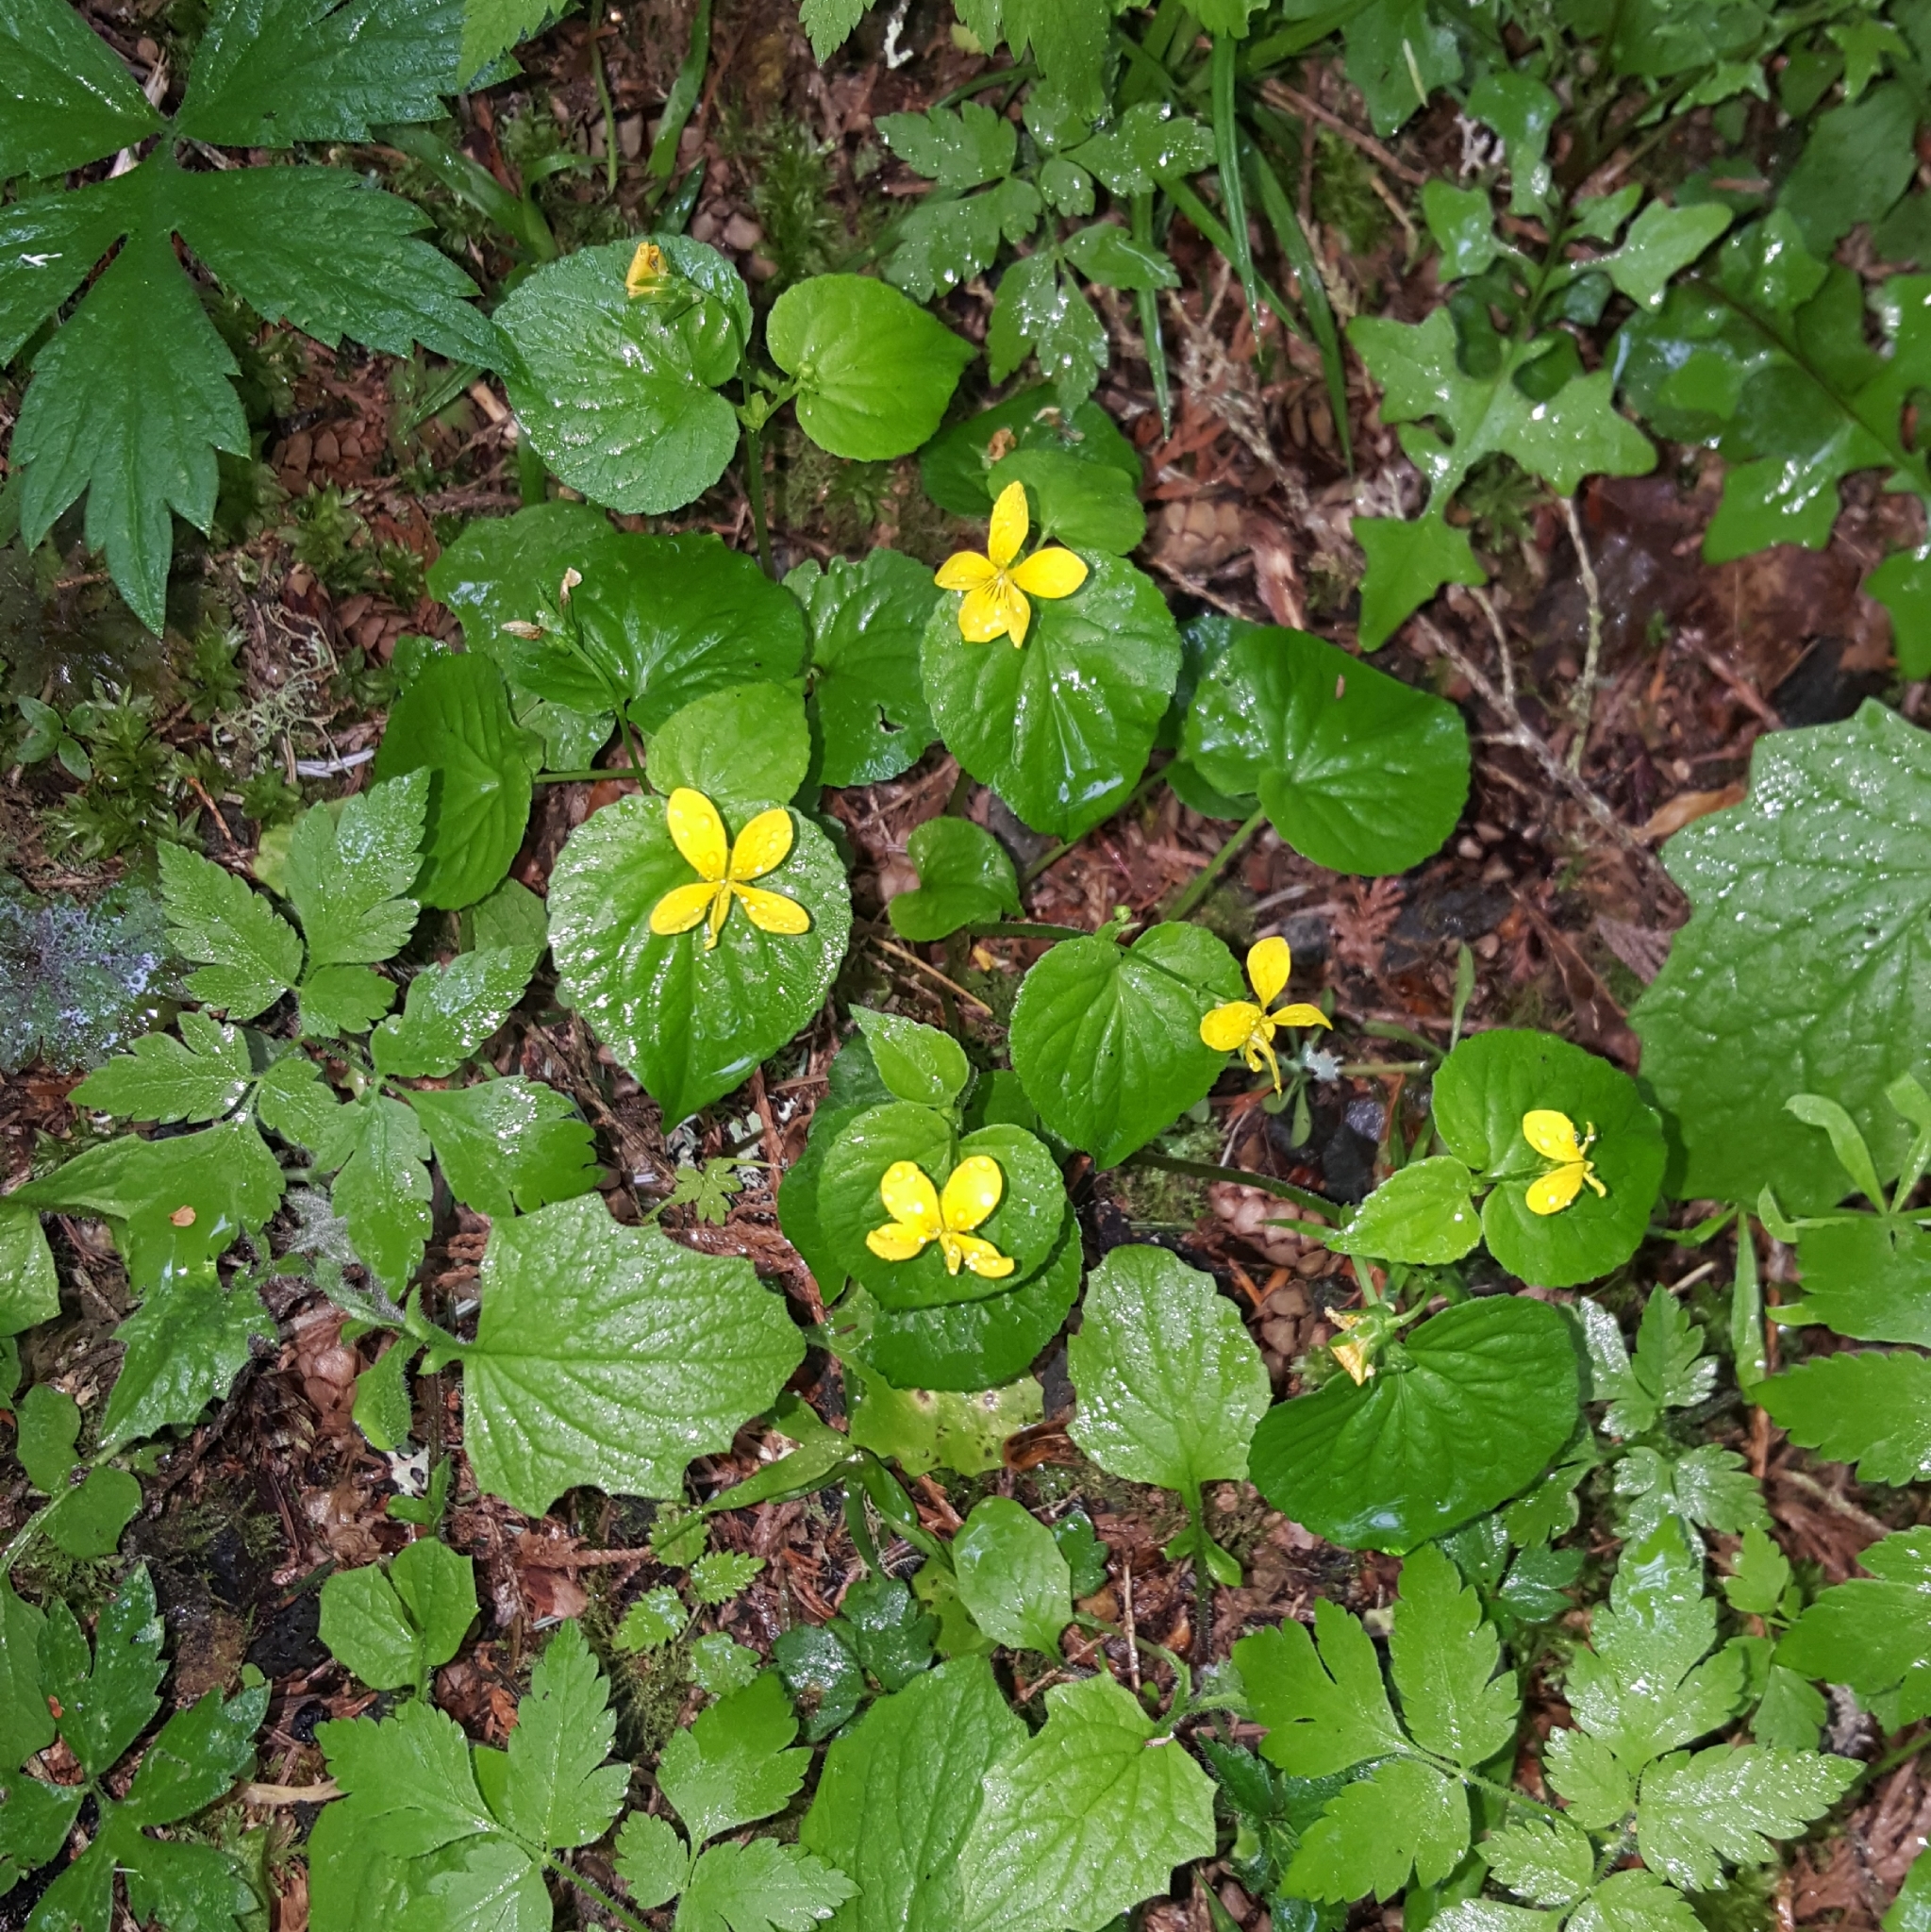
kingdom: Plantae
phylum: Tracheophyta
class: Magnoliopsida
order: Malpighiales
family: Violaceae
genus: Viola
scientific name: Viola glabella
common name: Stream violet
